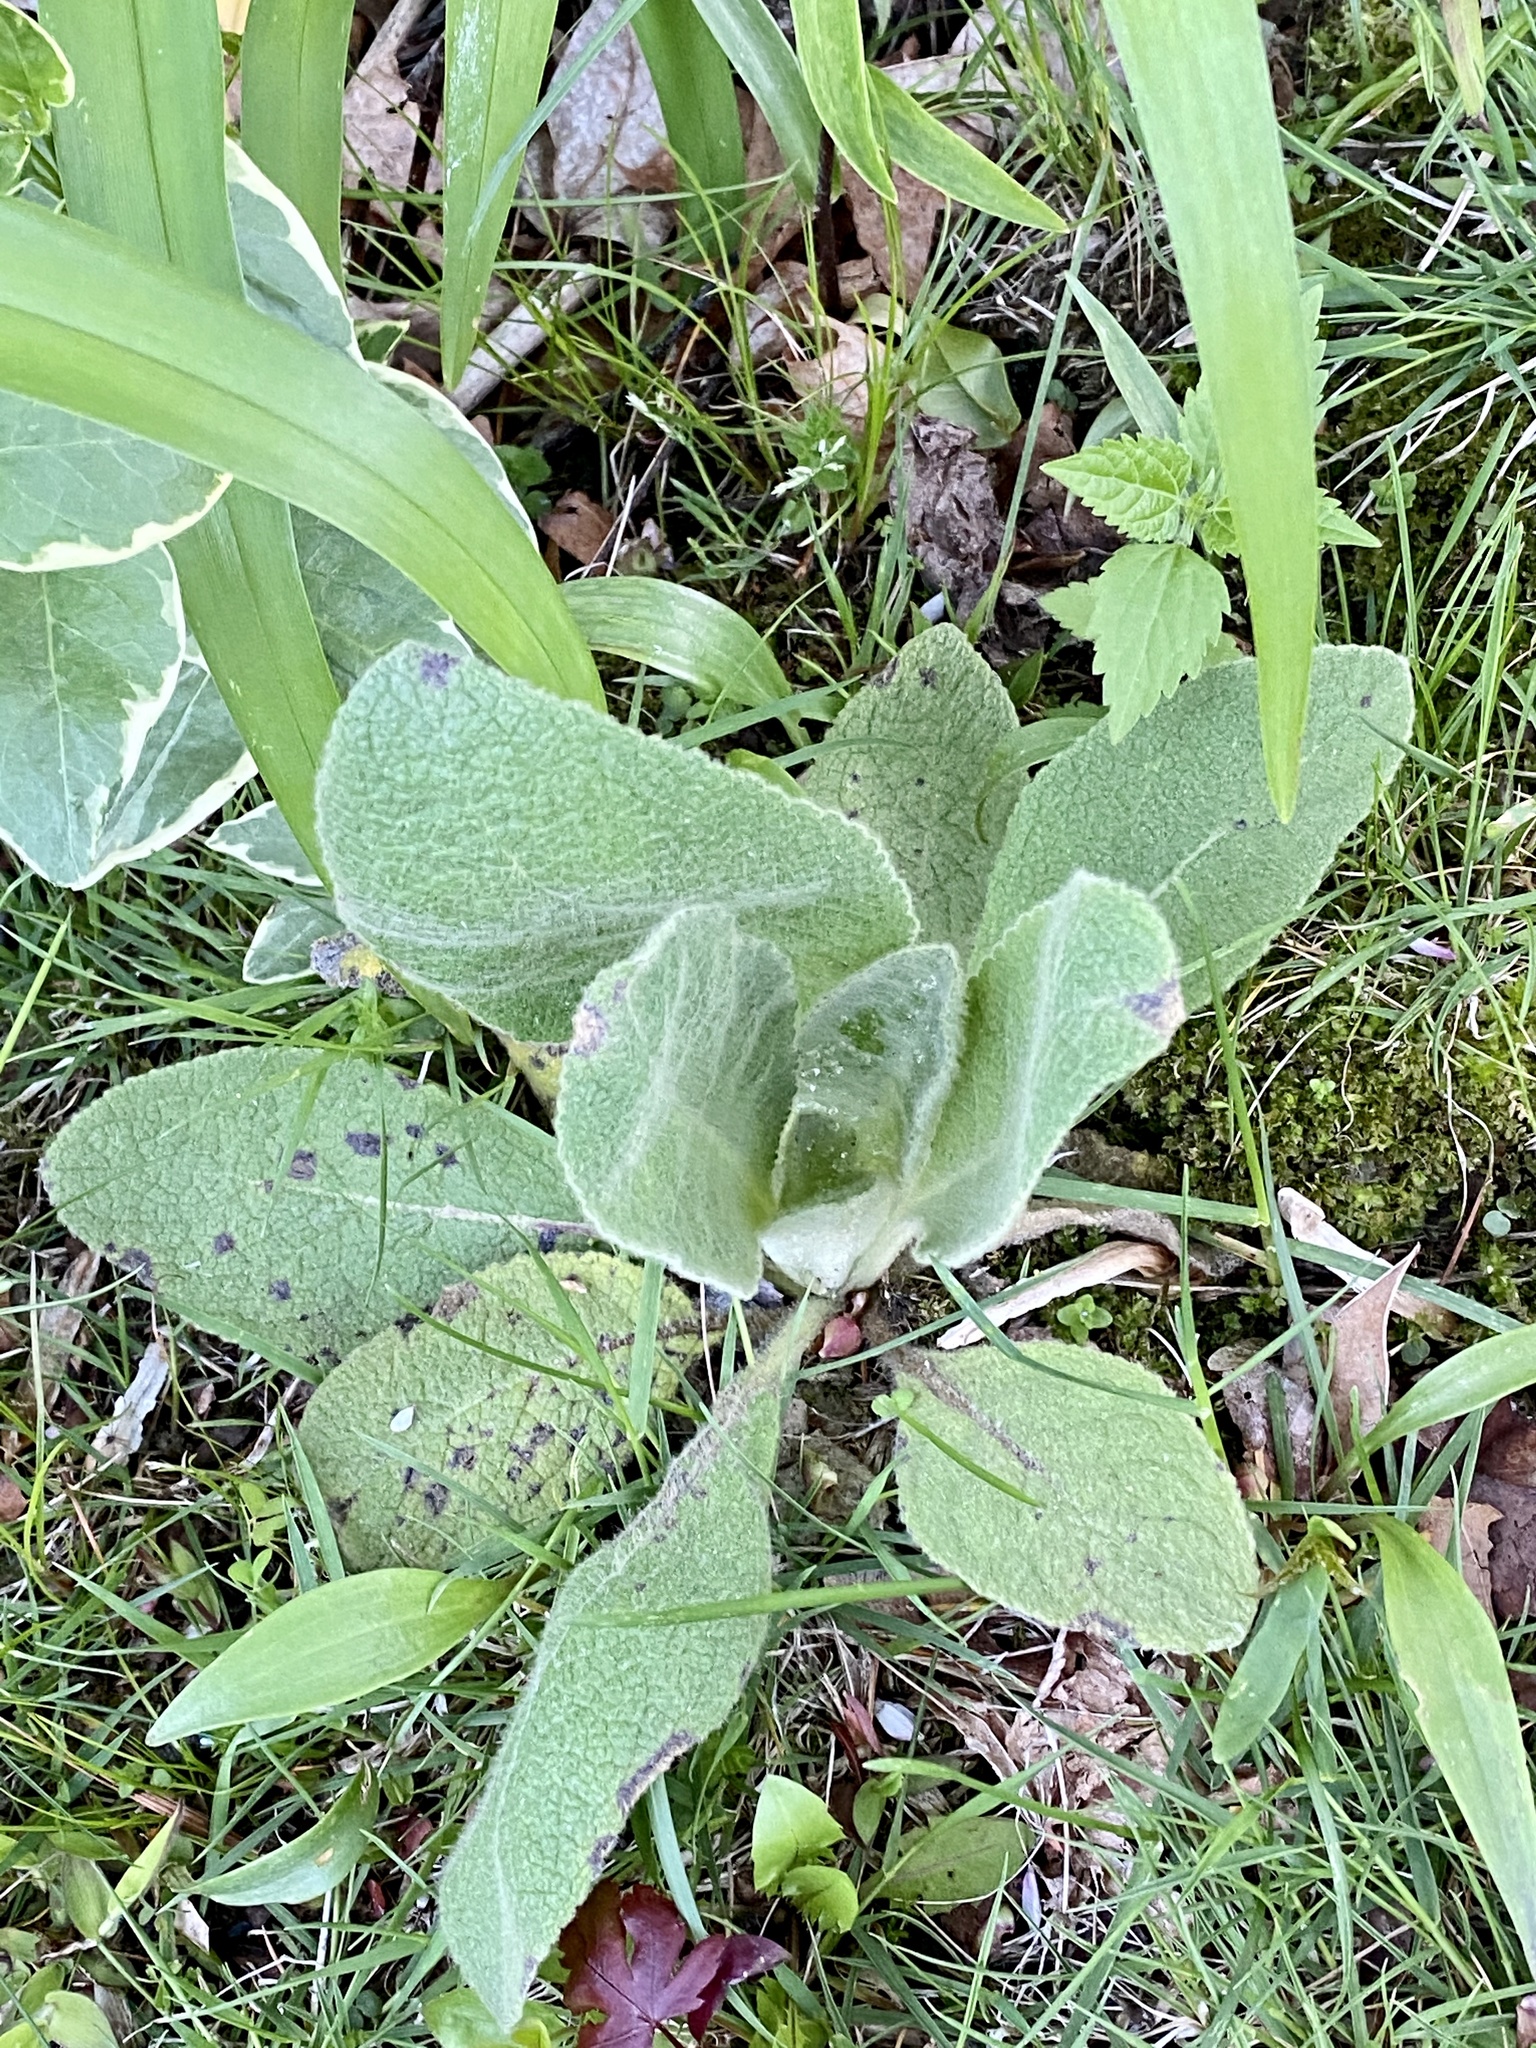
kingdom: Plantae
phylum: Tracheophyta
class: Magnoliopsida
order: Lamiales
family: Scrophulariaceae
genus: Verbascum
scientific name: Verbascum thapsus
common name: Common mullein
